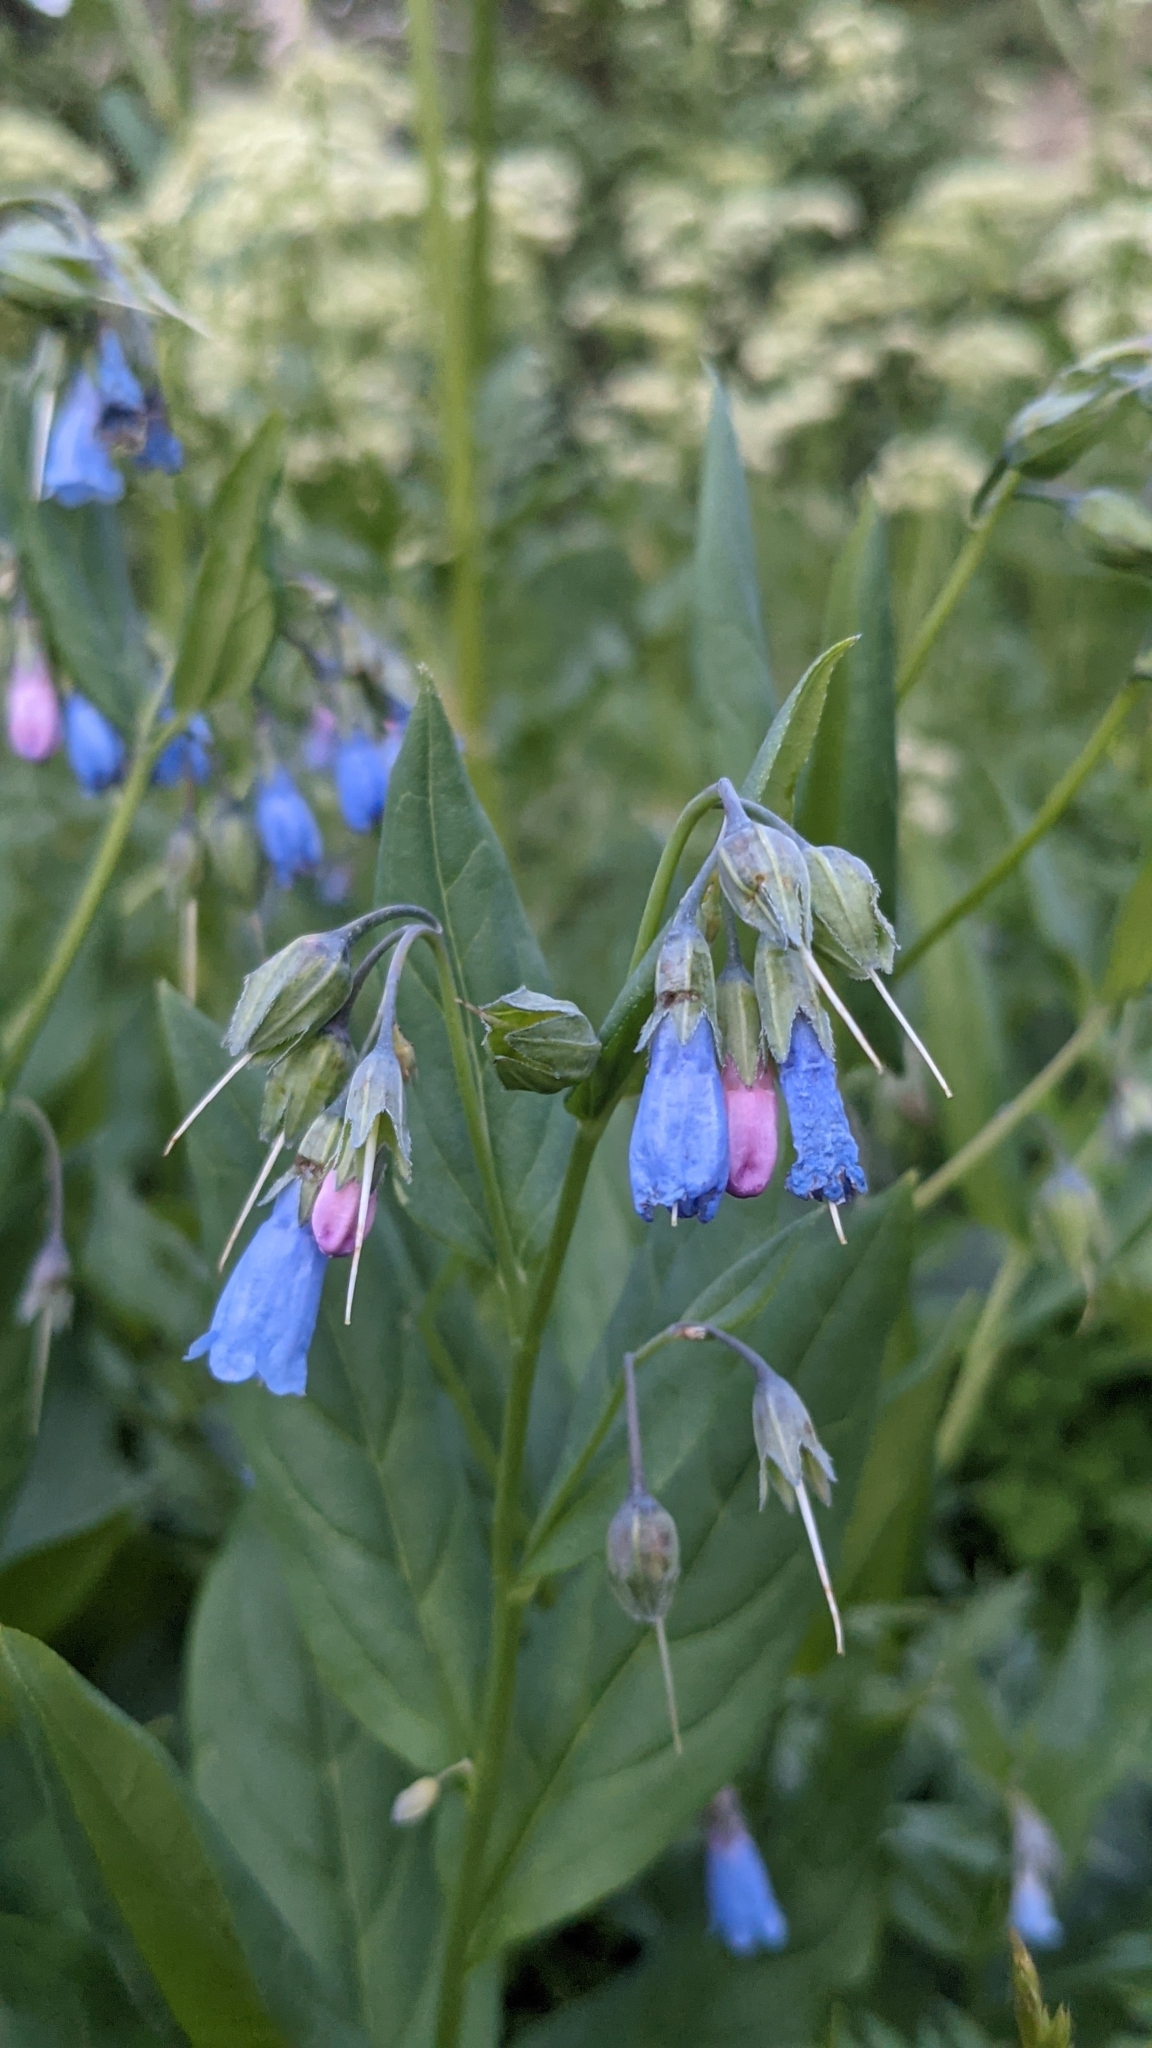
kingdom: Plantae
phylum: Tracheophyta
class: Magnoliopsida
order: Boraginales
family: Boraginaceae
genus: Mertensia
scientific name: Mertensia arizonica
